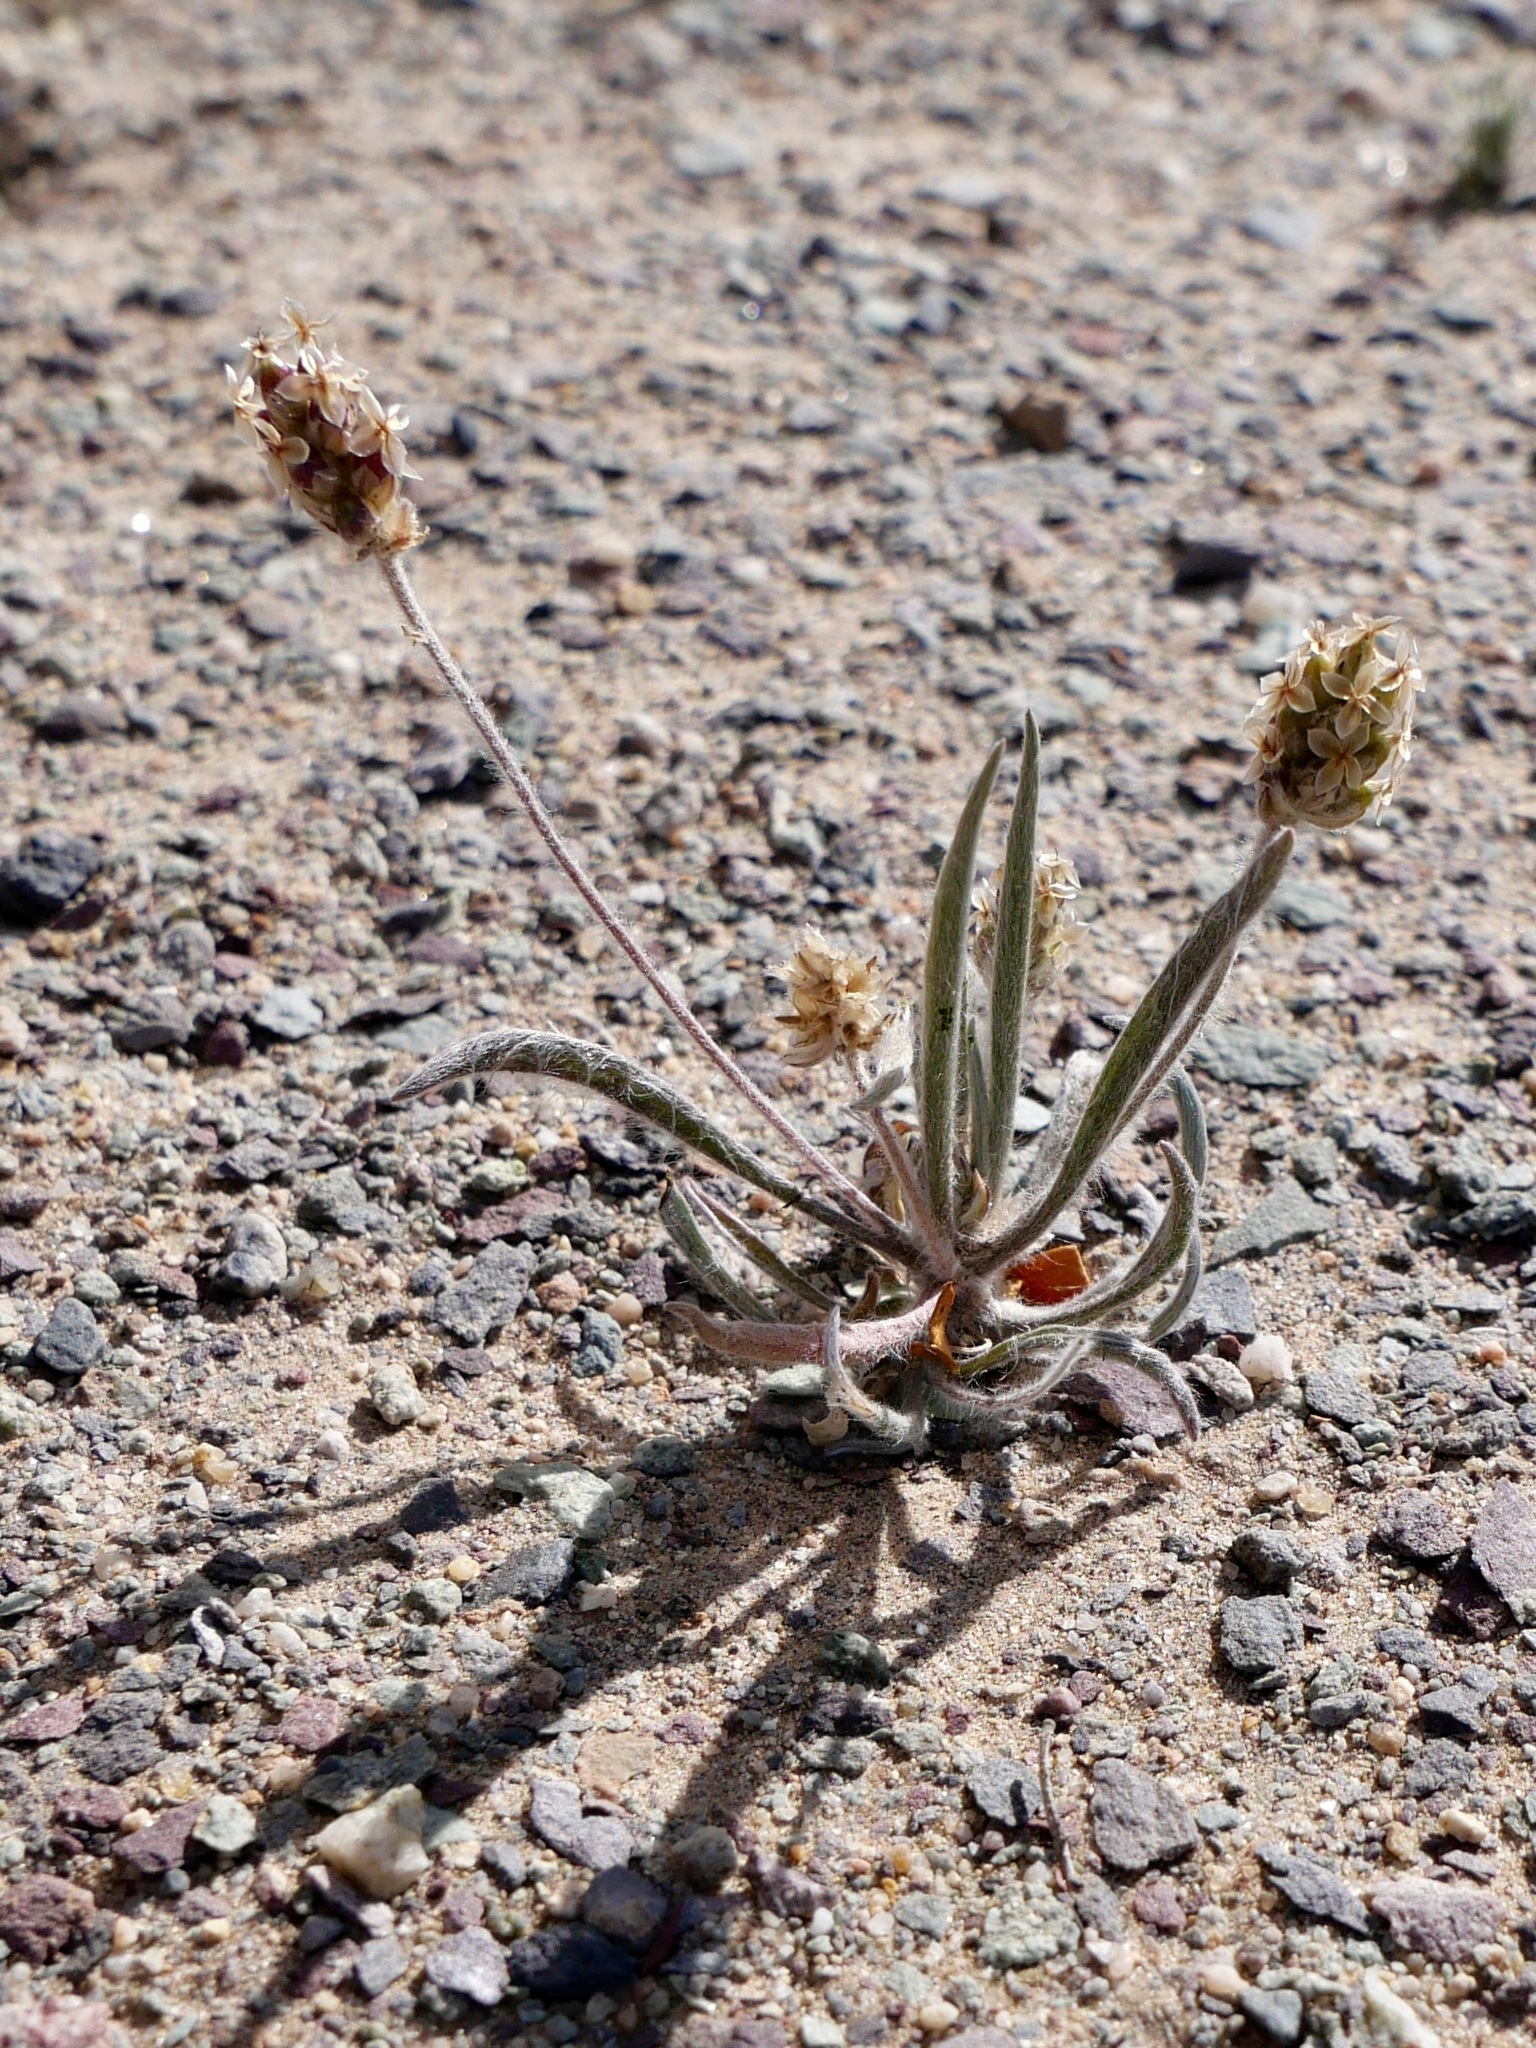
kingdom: Plantae
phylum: Tracheophyta
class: Magnoliopsida
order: Lamiales
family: Plantaginaceae
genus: Plantago
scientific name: Plantago ovata
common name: Blond plantain
